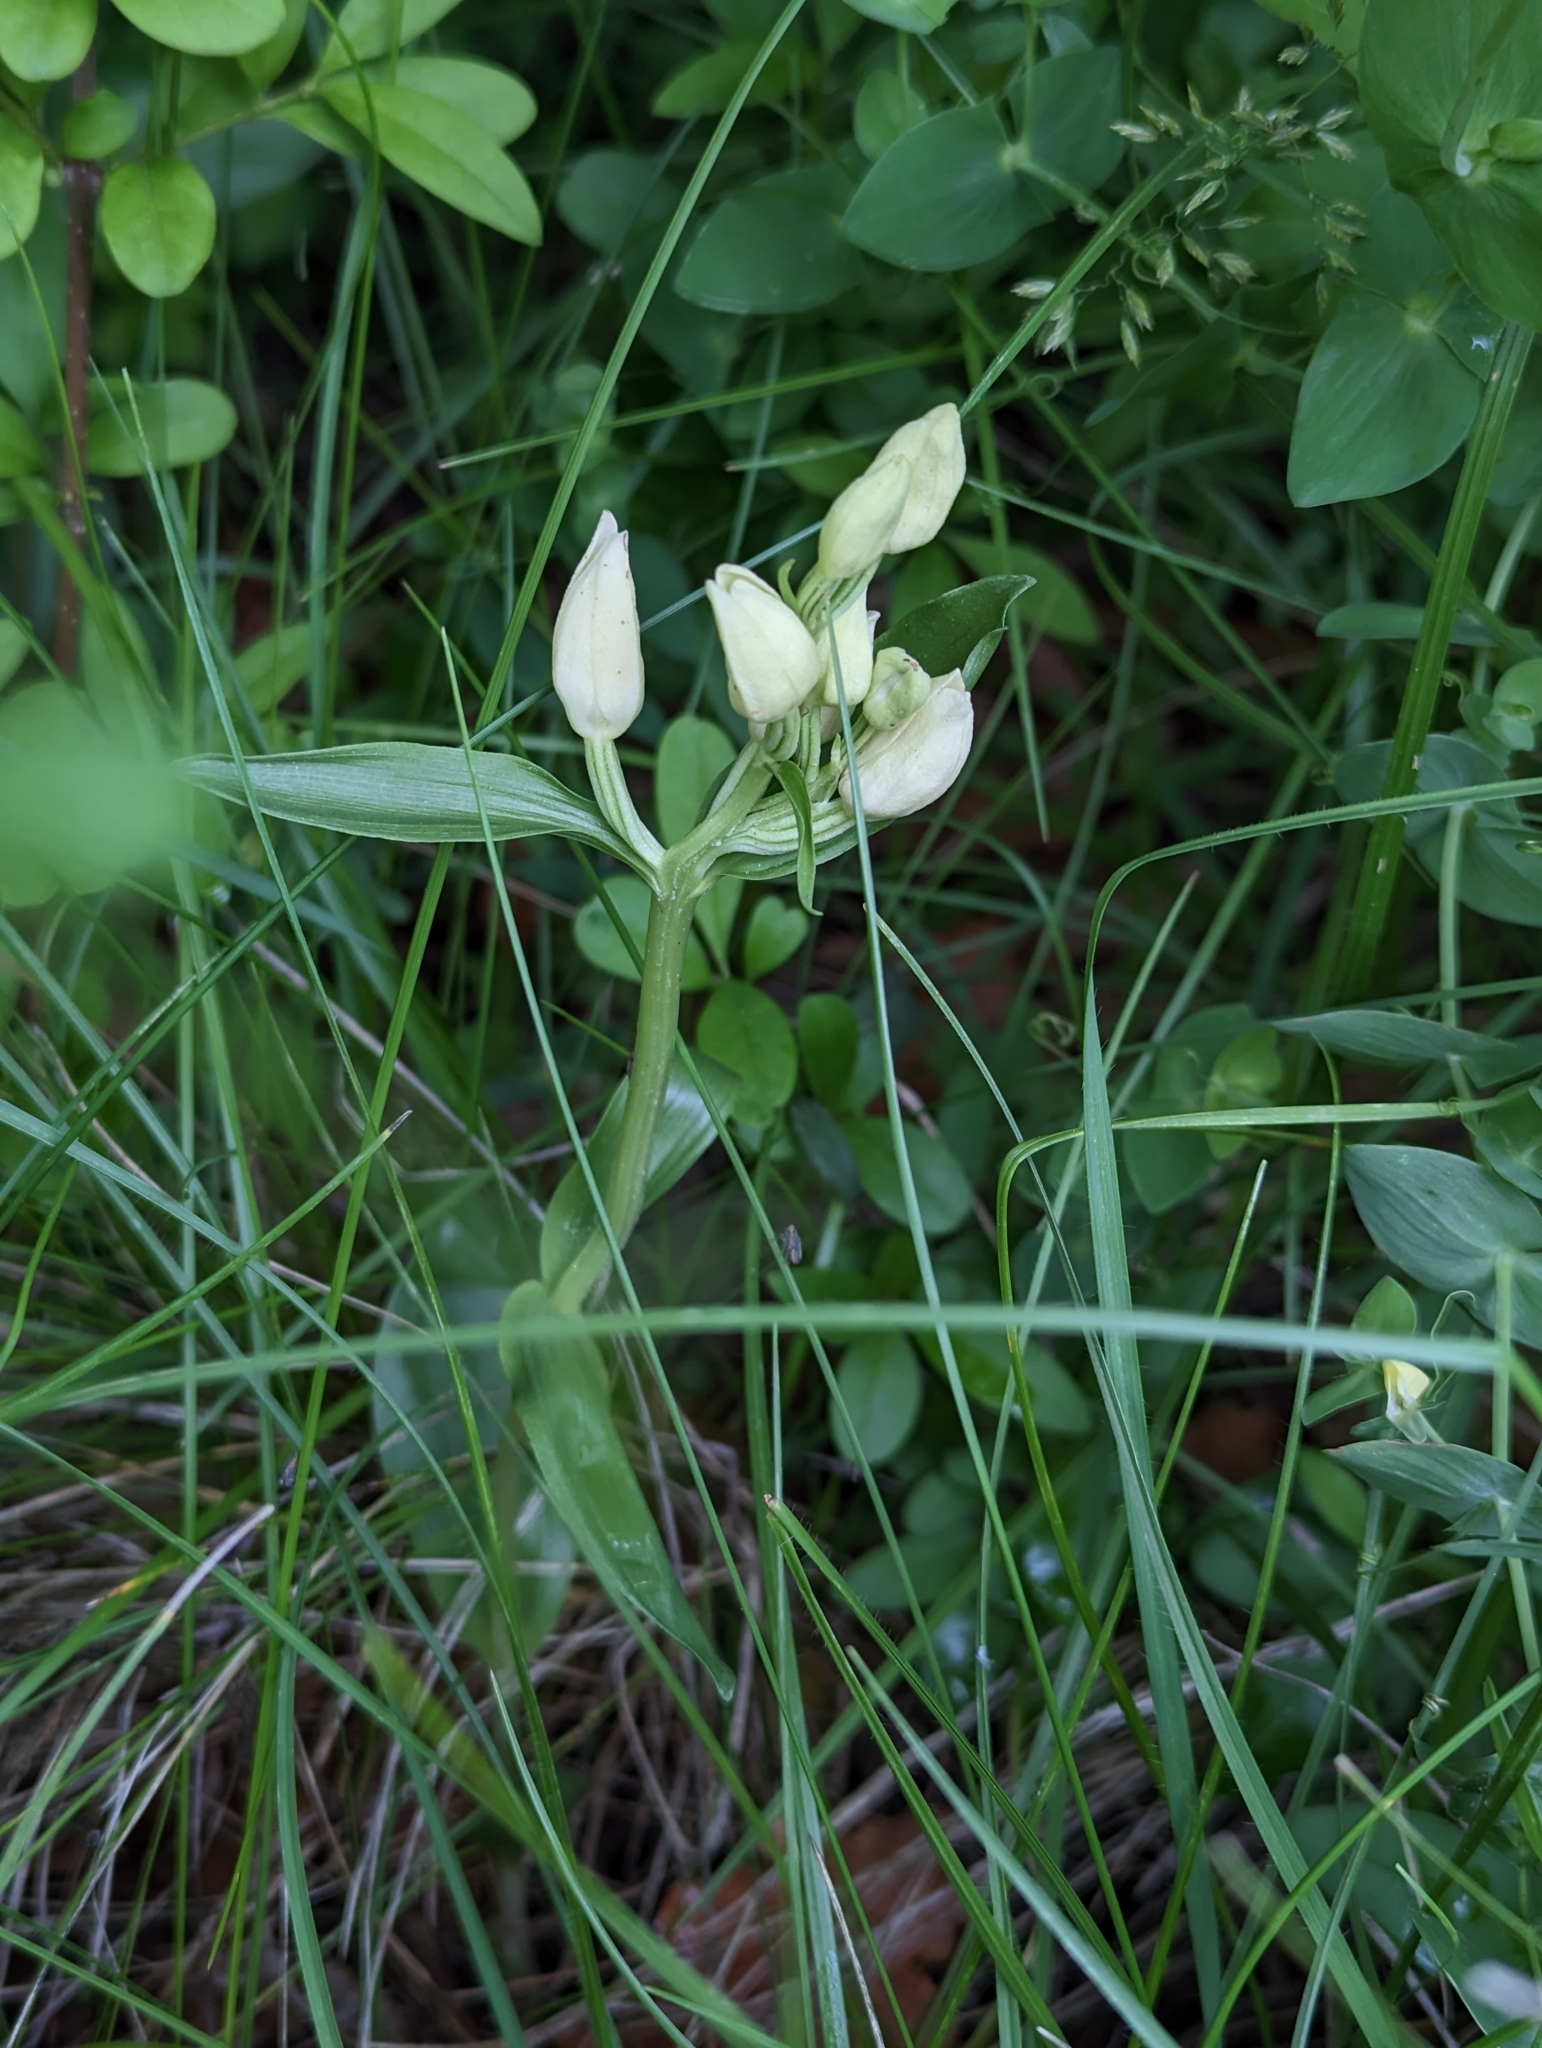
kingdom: Plantae
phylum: Tracheophyta
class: Liliopsida
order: Asparagales
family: Orchidaceae
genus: Cephalanthera
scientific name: Cephalanthera damasonium
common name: White helleborine
